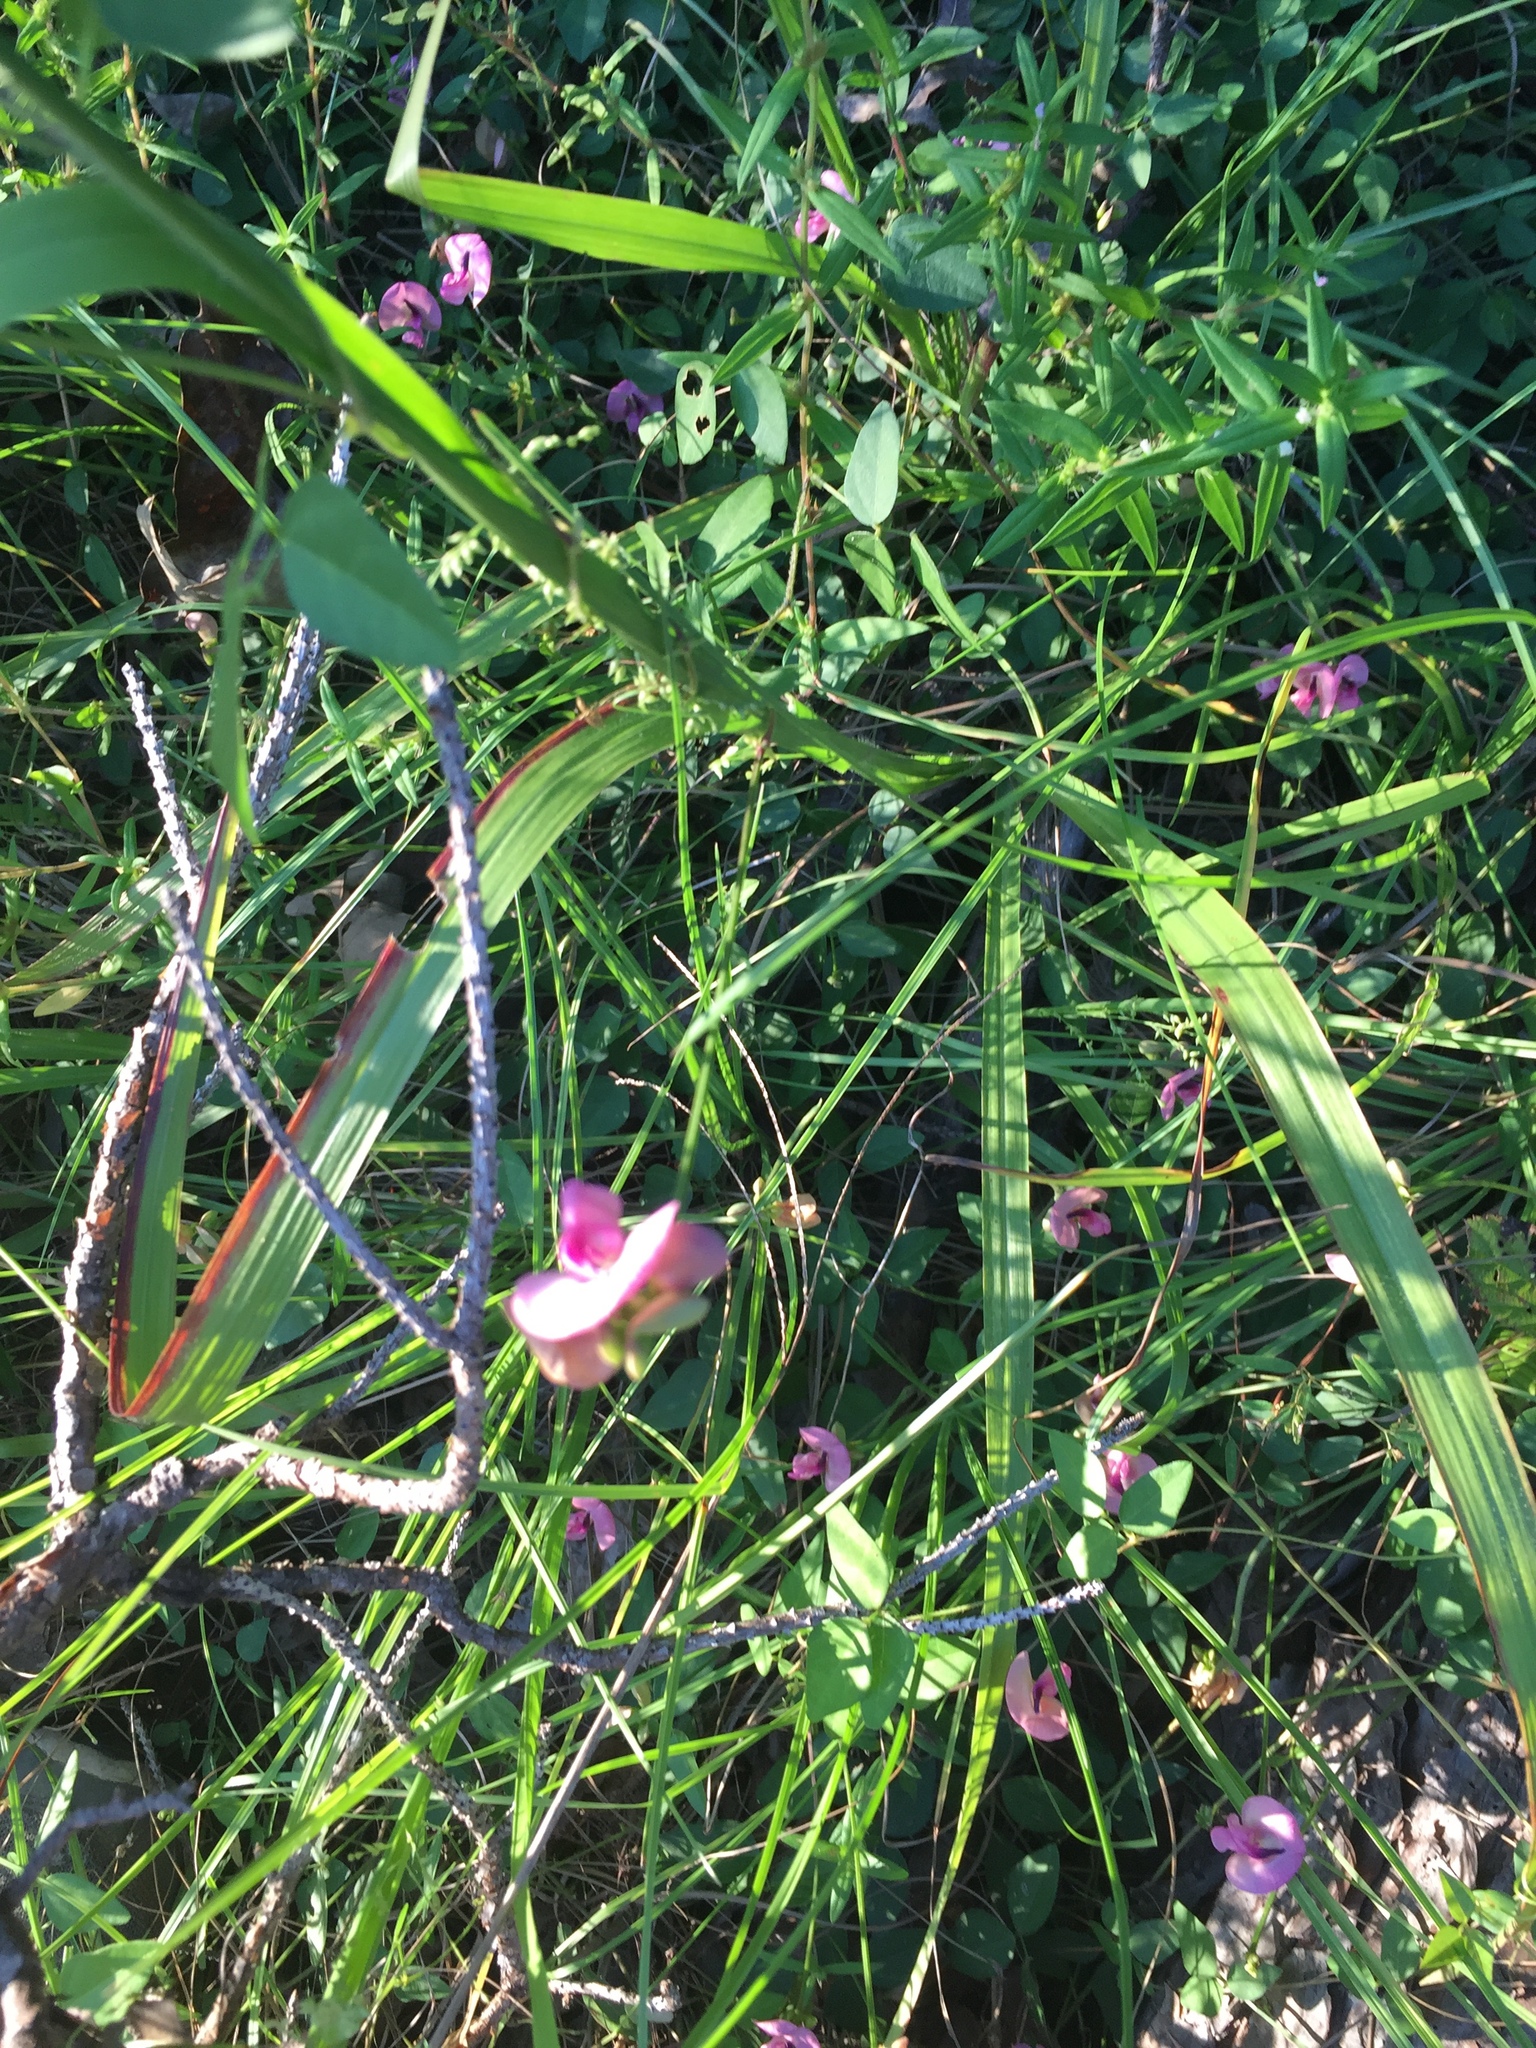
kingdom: Plantae
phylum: Tracheophyta
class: Magnoliopsida
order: Fabales
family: Fabaceae
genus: Strophostyles
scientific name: Strophostyles umbellata
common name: Perennial wild bean
